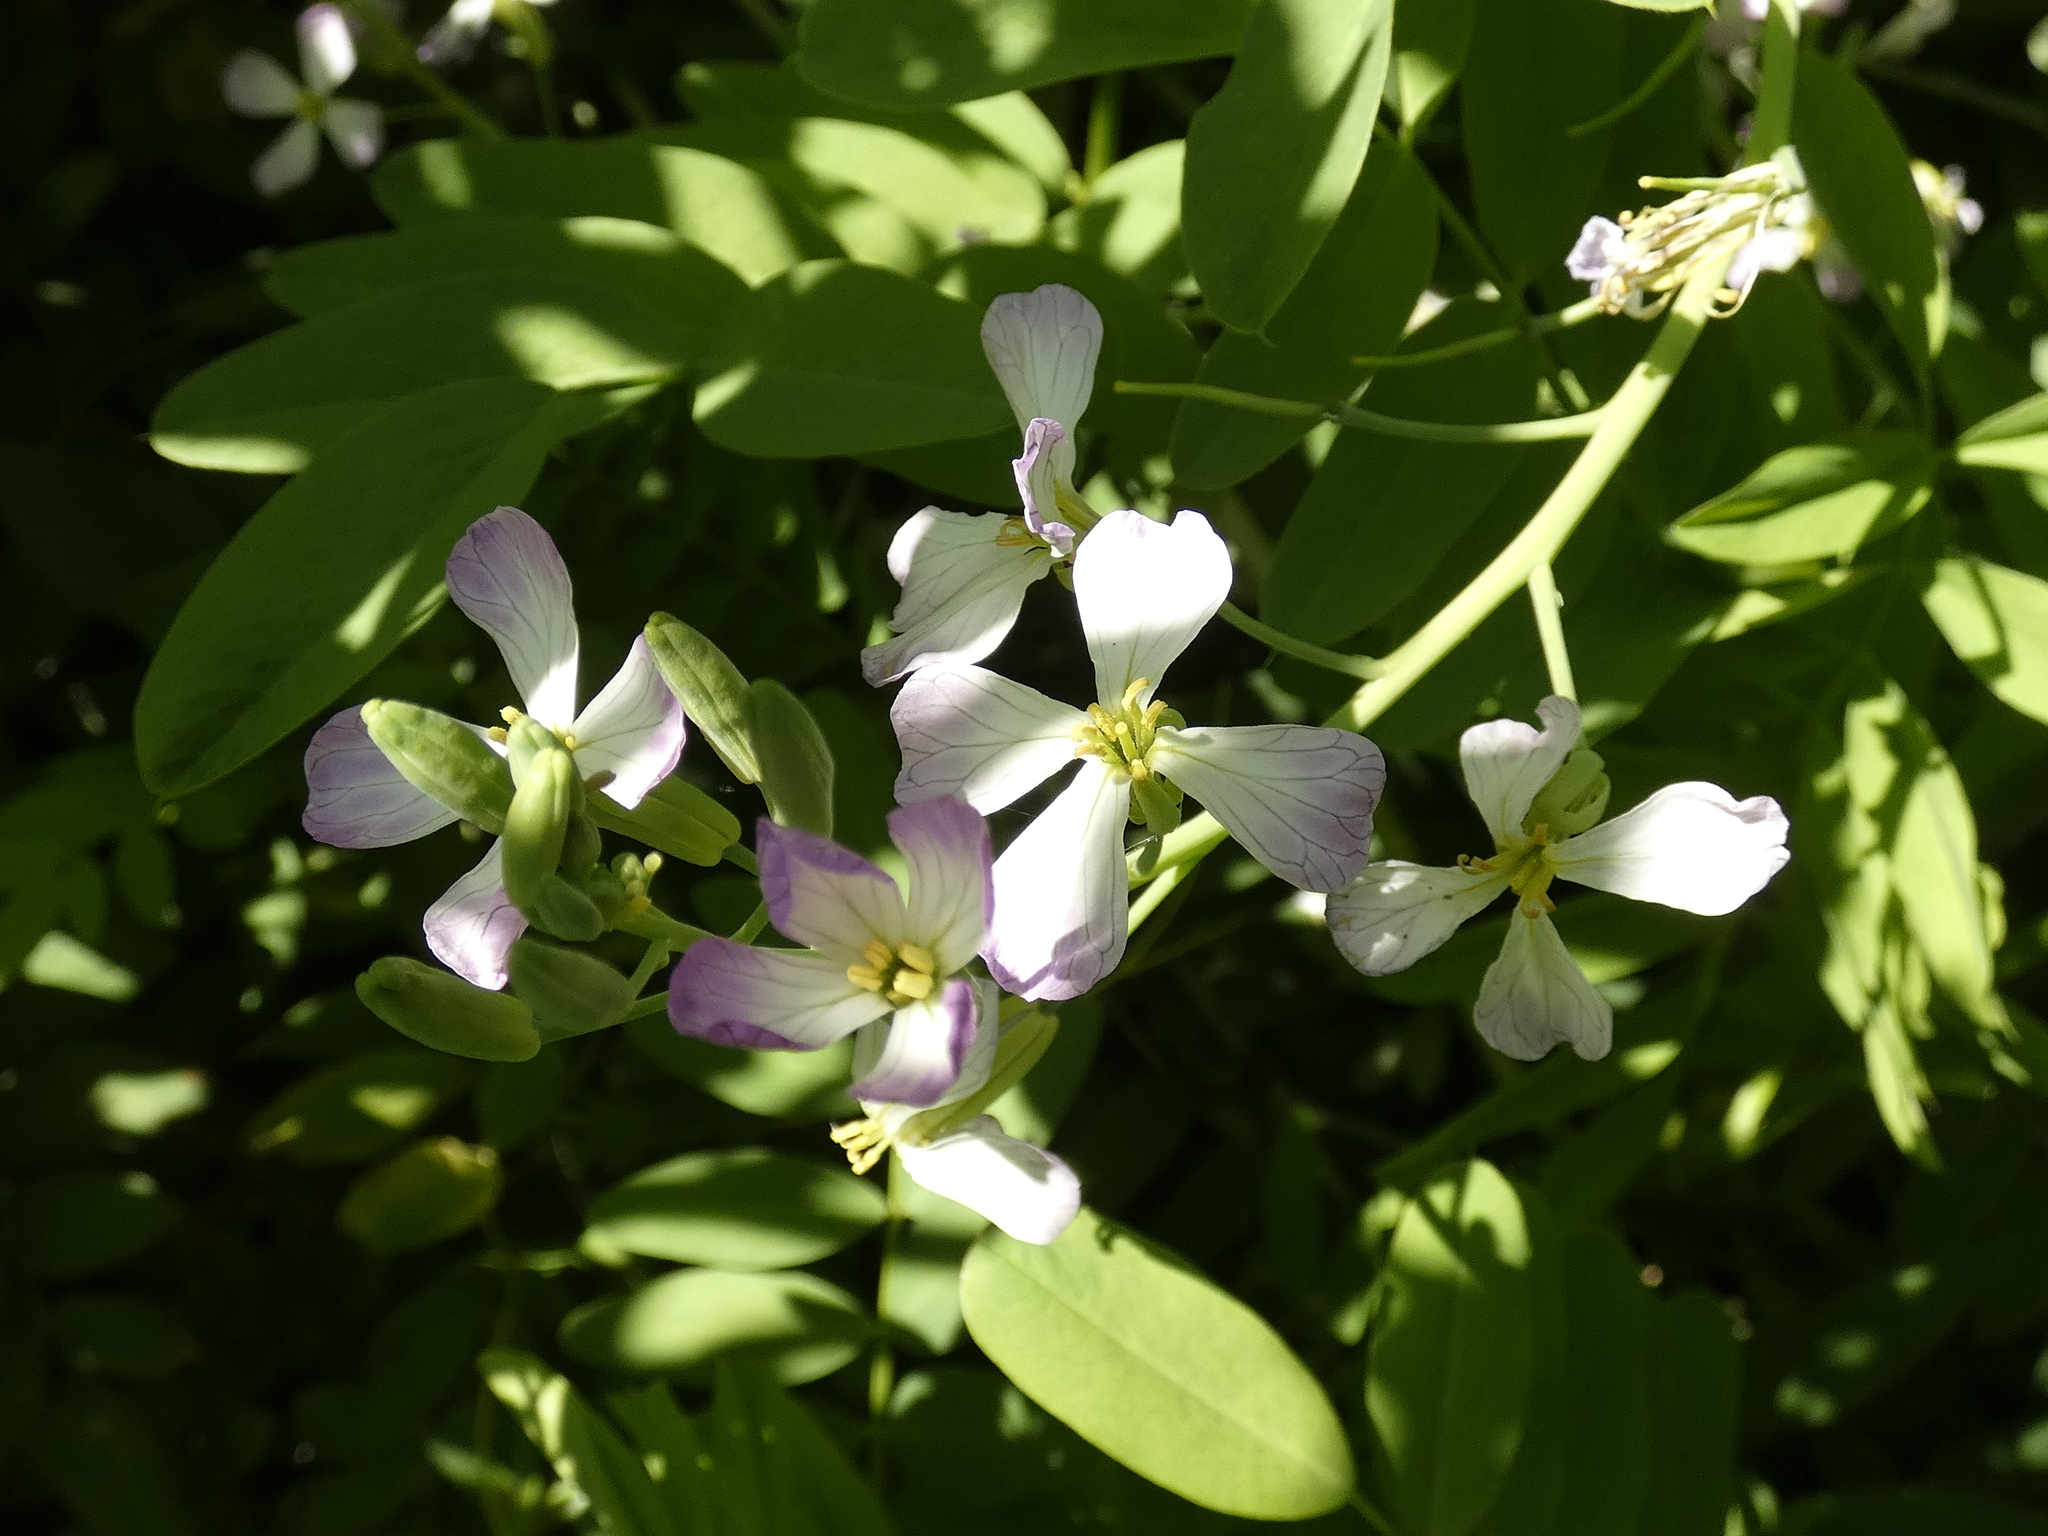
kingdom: Plantae
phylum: Tracheophyta
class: Magnoliopsida
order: Brassicales
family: Brassicaceae
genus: Raphanus
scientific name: Raphanus sativus
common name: Cultivated radish
